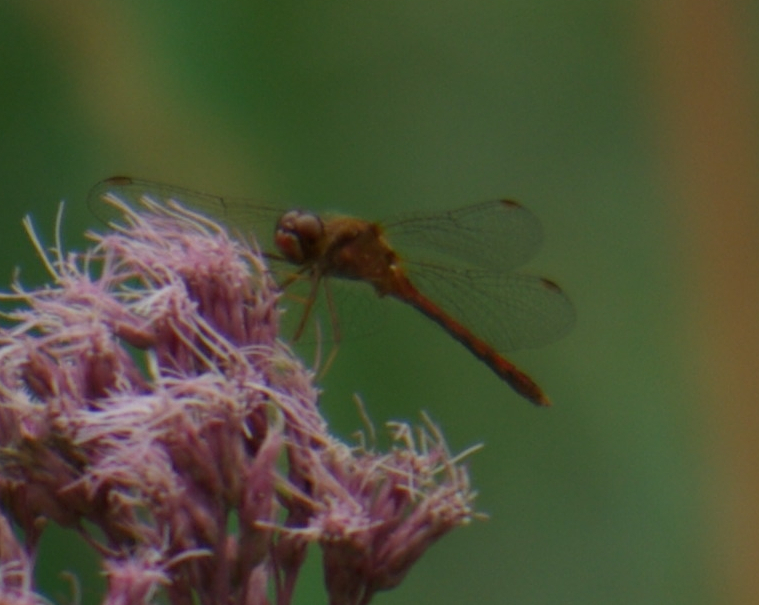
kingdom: Animalia
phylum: Arthropoda
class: Insecta
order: Odonata
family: Libellulidae
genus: Sympetrum
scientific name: Sympetrum vicinum
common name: Autumn meadowhawk
